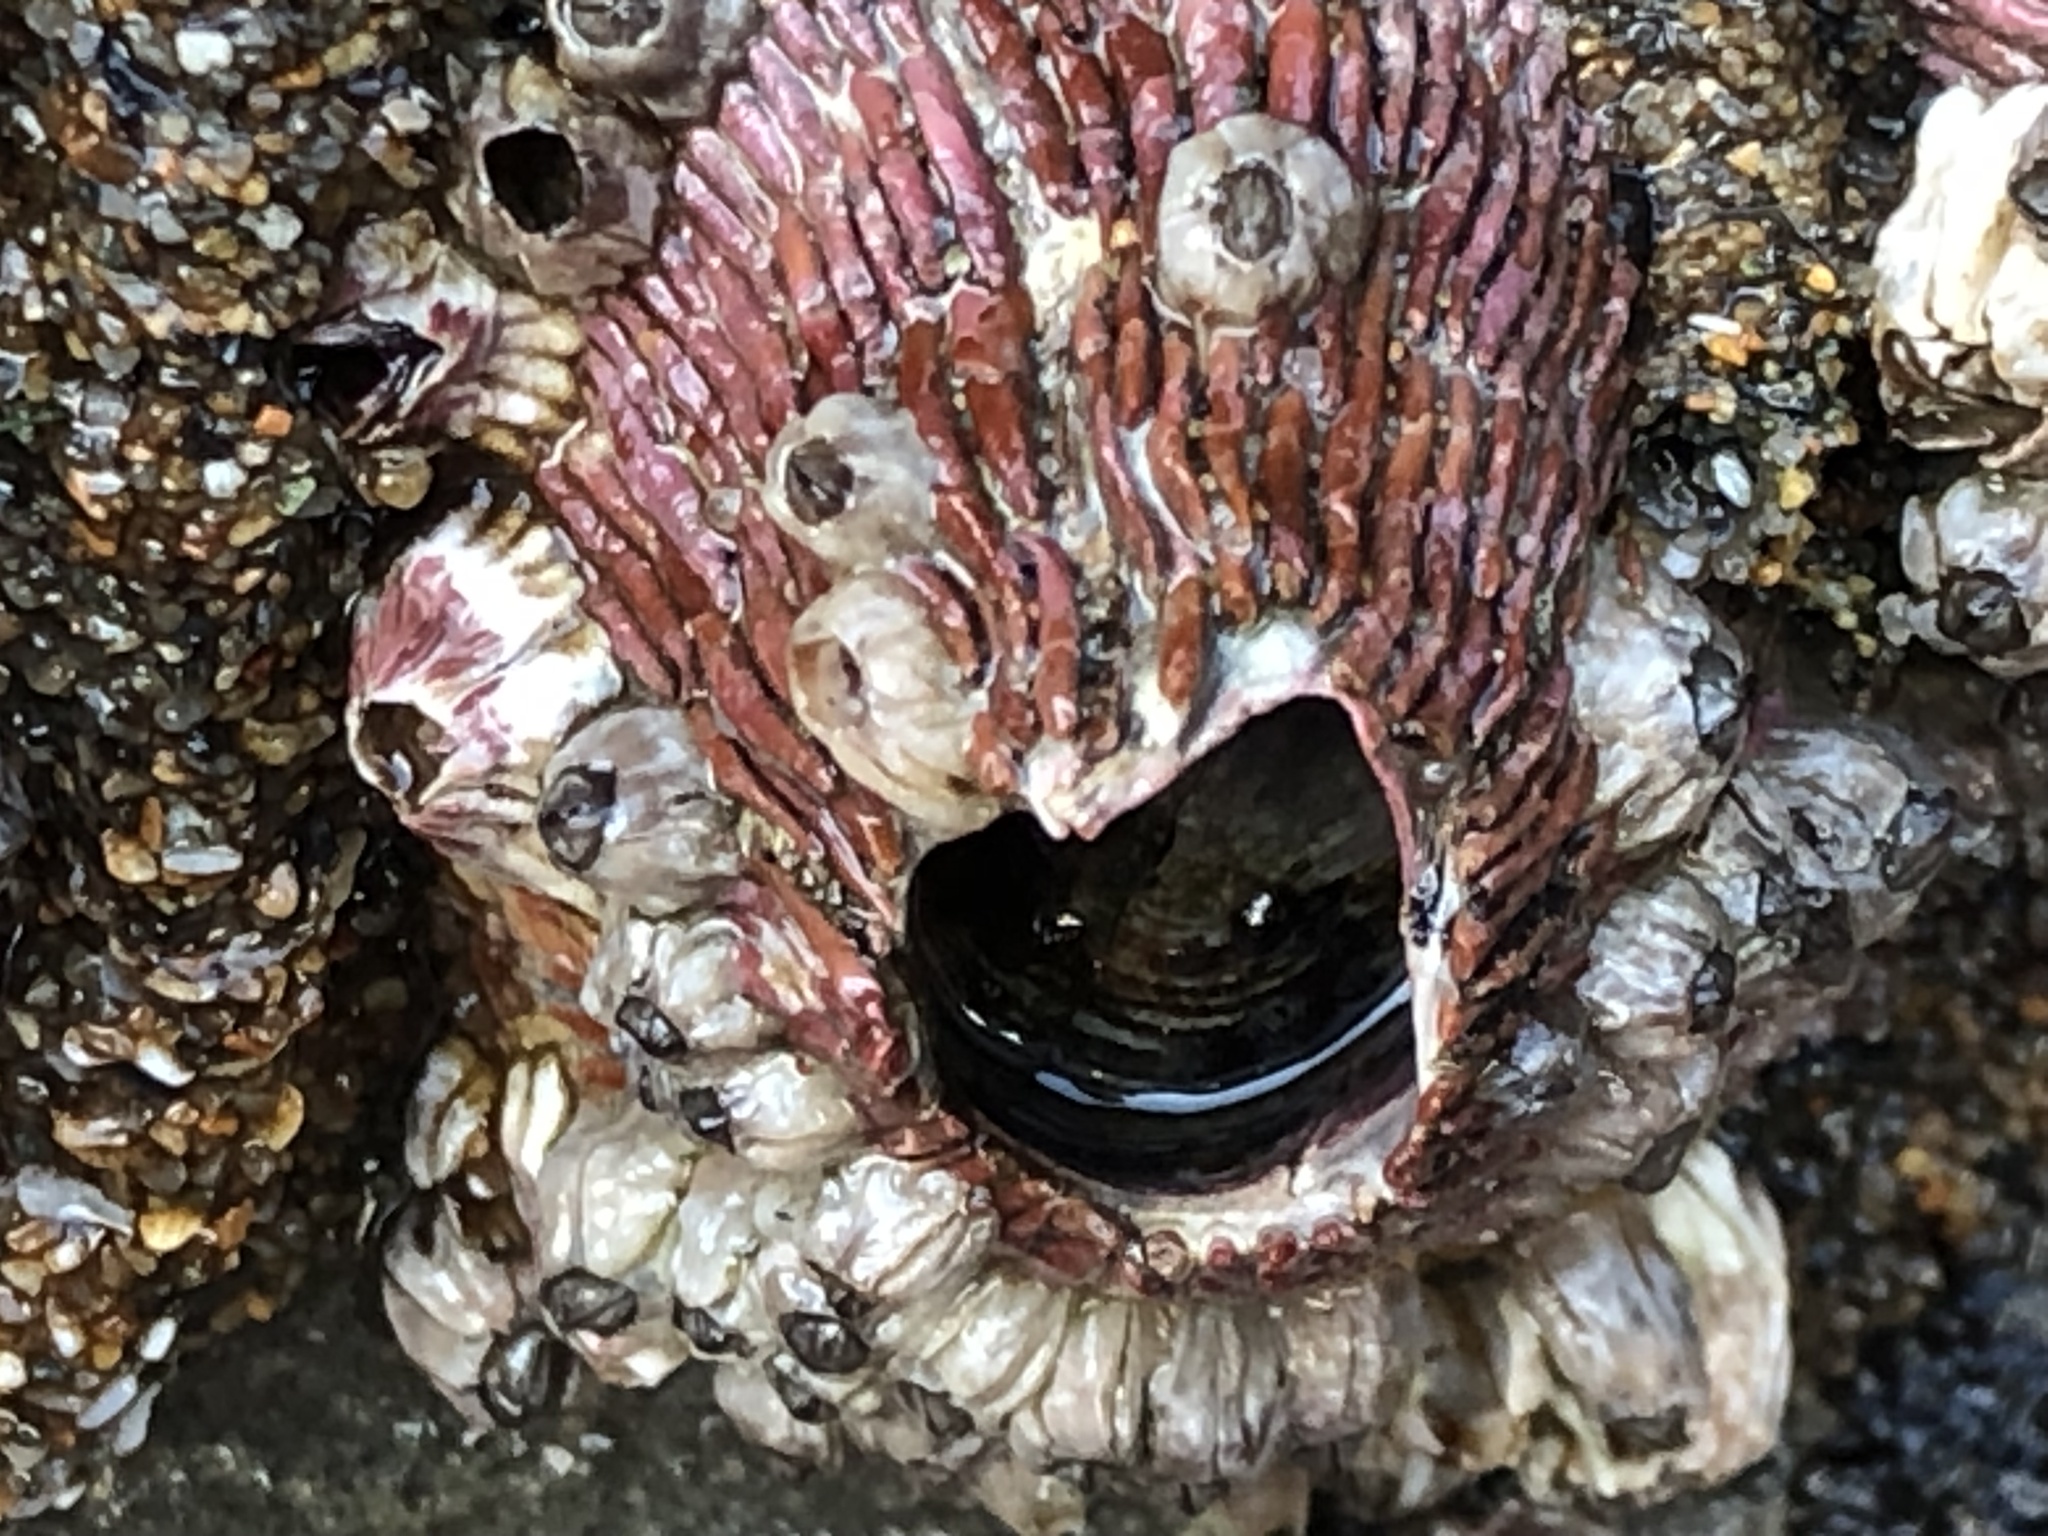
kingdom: Animalia
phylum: Arthropoda
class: Maxillopoda
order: Sessilia
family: Tetraclitidae
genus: Tetraclita
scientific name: Tetraclita rubescens
